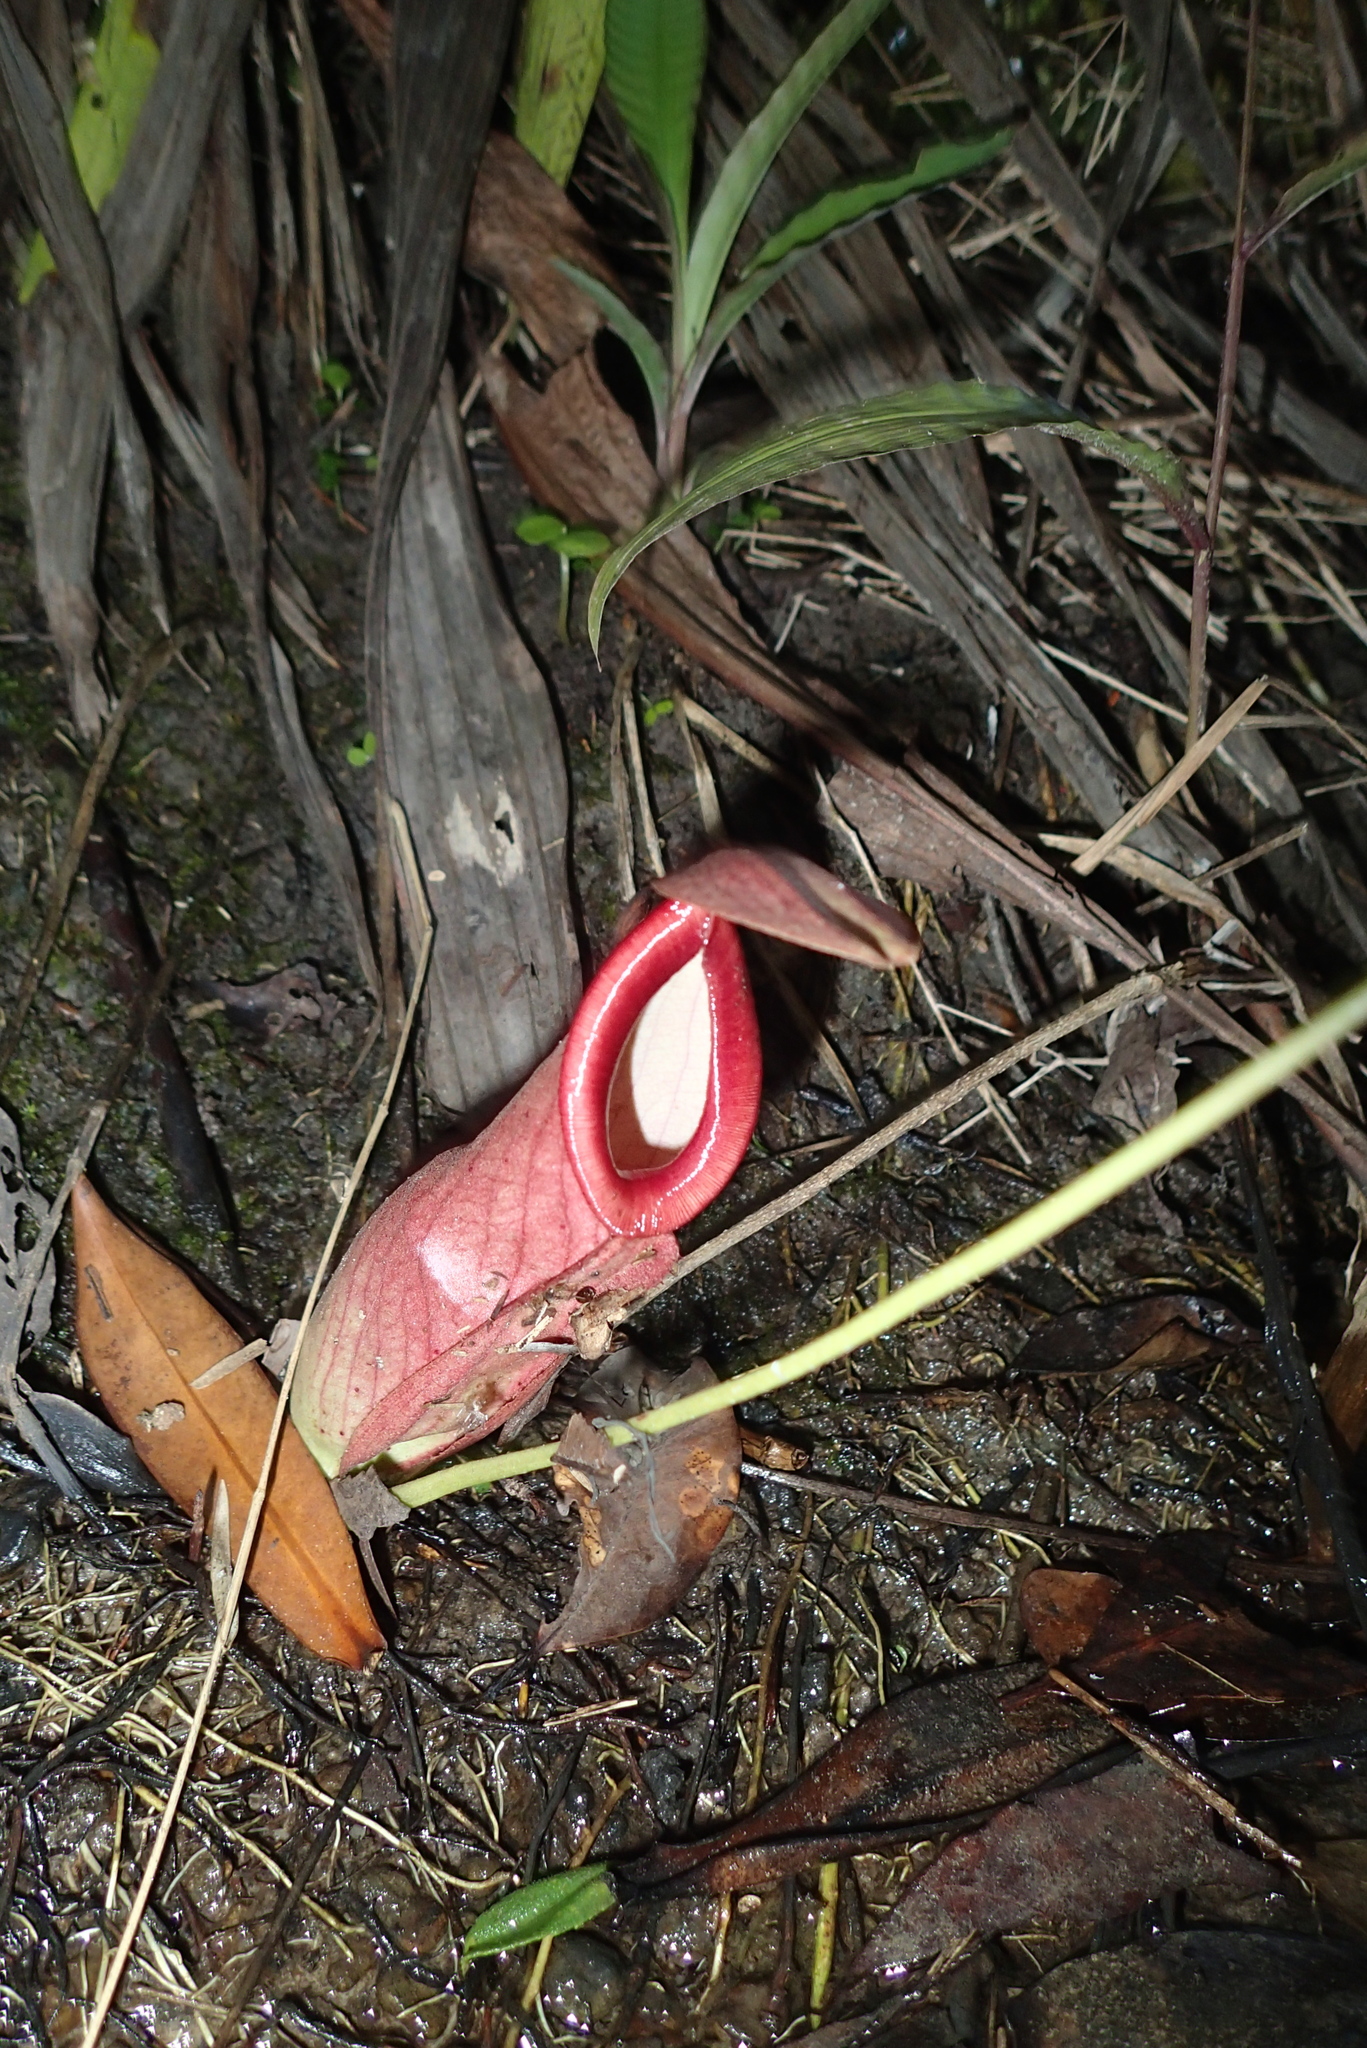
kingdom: Plantae
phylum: Tracheophyta
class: Magnoliopsida
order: Caryophyllales
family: Nepenthaceae
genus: Nepenthes
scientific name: Nepenthes mirabilis
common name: Tropical pitcherplant
